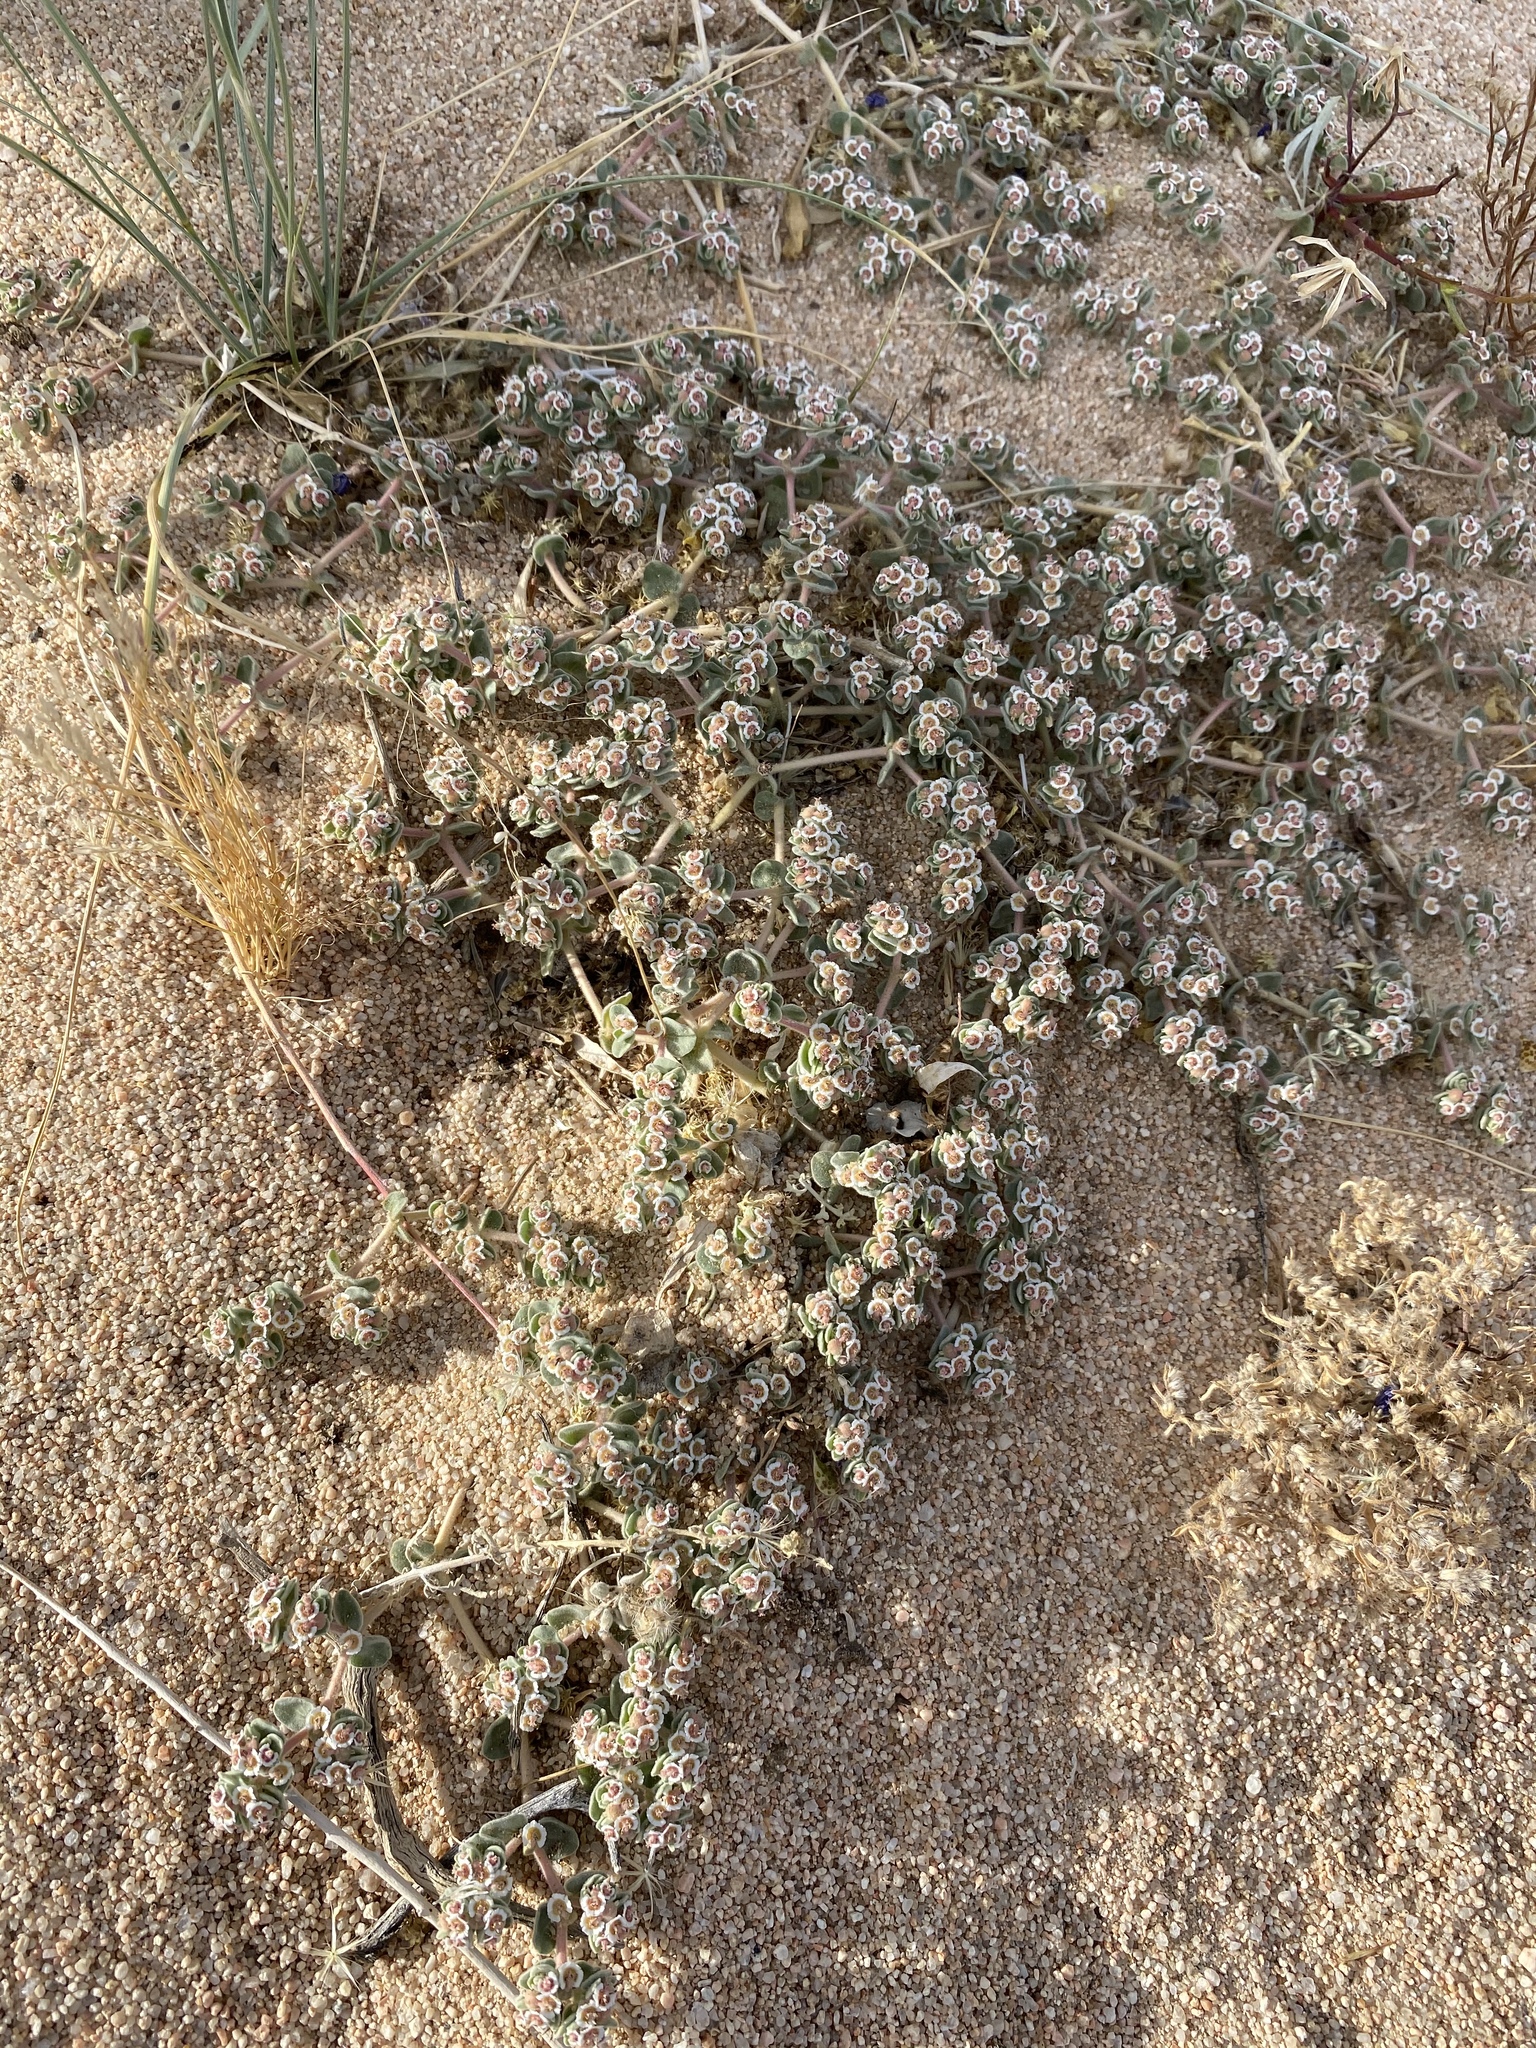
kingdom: Plantae
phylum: Tracheophyta
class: Magnoliopsida
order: Malpighiales
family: Euphorbiaceae
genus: Euphorbia
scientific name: Euphorbia vallis-mortae
